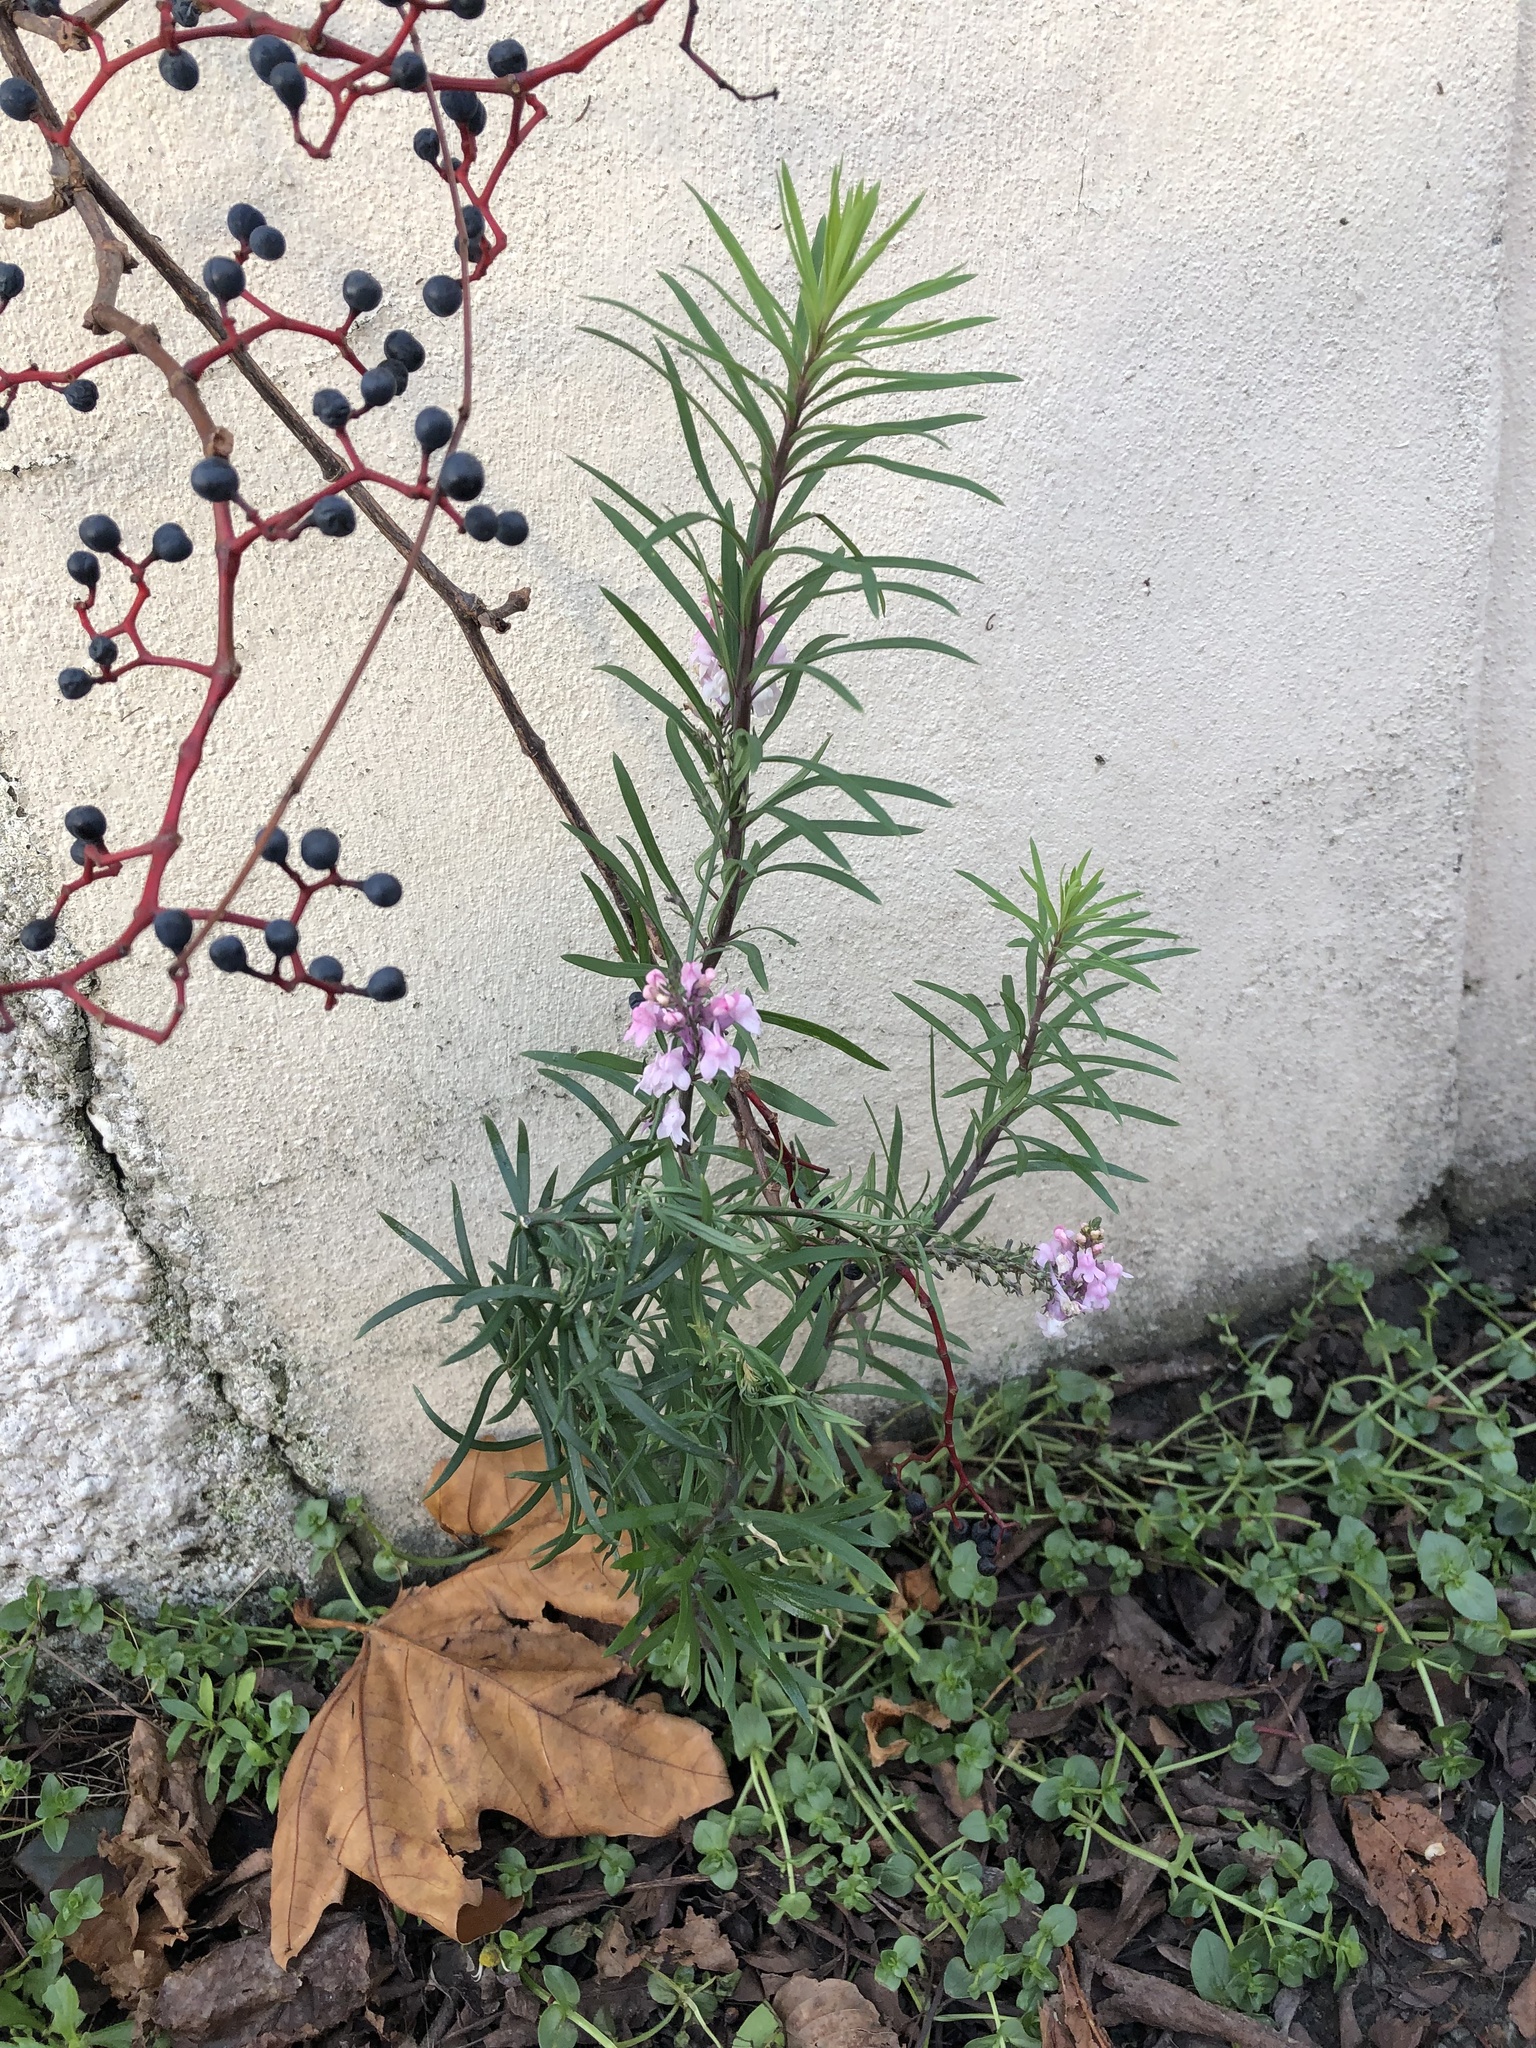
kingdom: Plantae
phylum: Tracheophyta
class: Magnoliopsida
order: Lamiales
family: Plantaginaceae
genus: Linaria
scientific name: Linaria purpurea
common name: Purple toadflax
